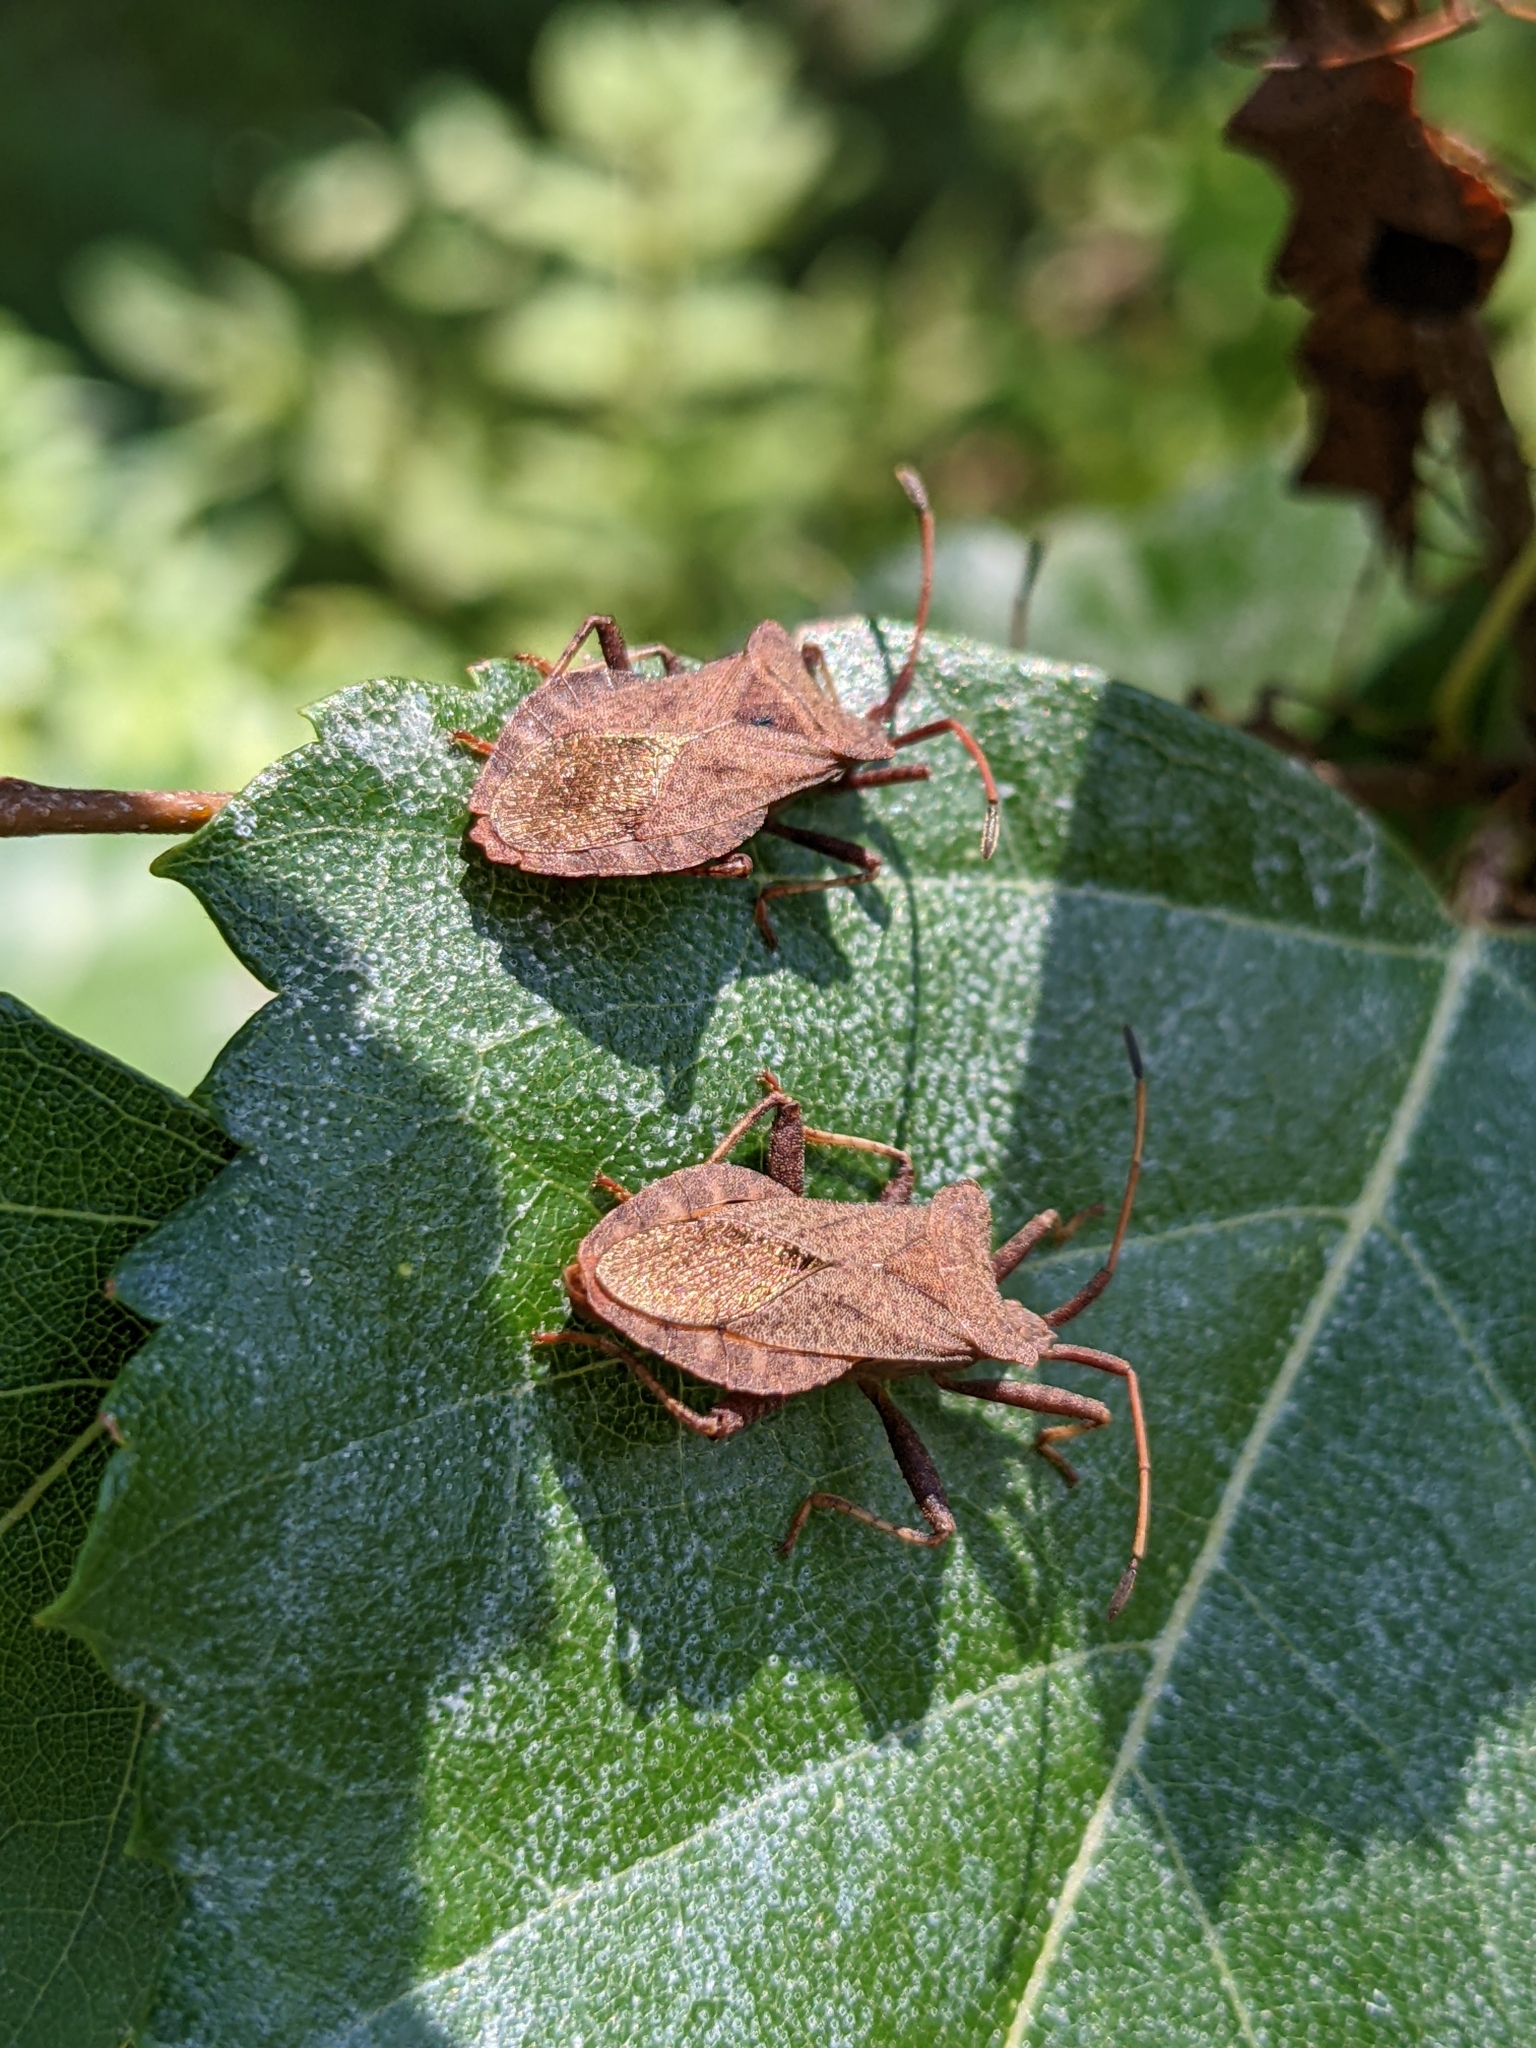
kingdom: Animalia
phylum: Arthropoda
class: Insecta
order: Hemiptera
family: Coreidae
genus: Coreus
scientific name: Coreus marginatus
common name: Dock bug
